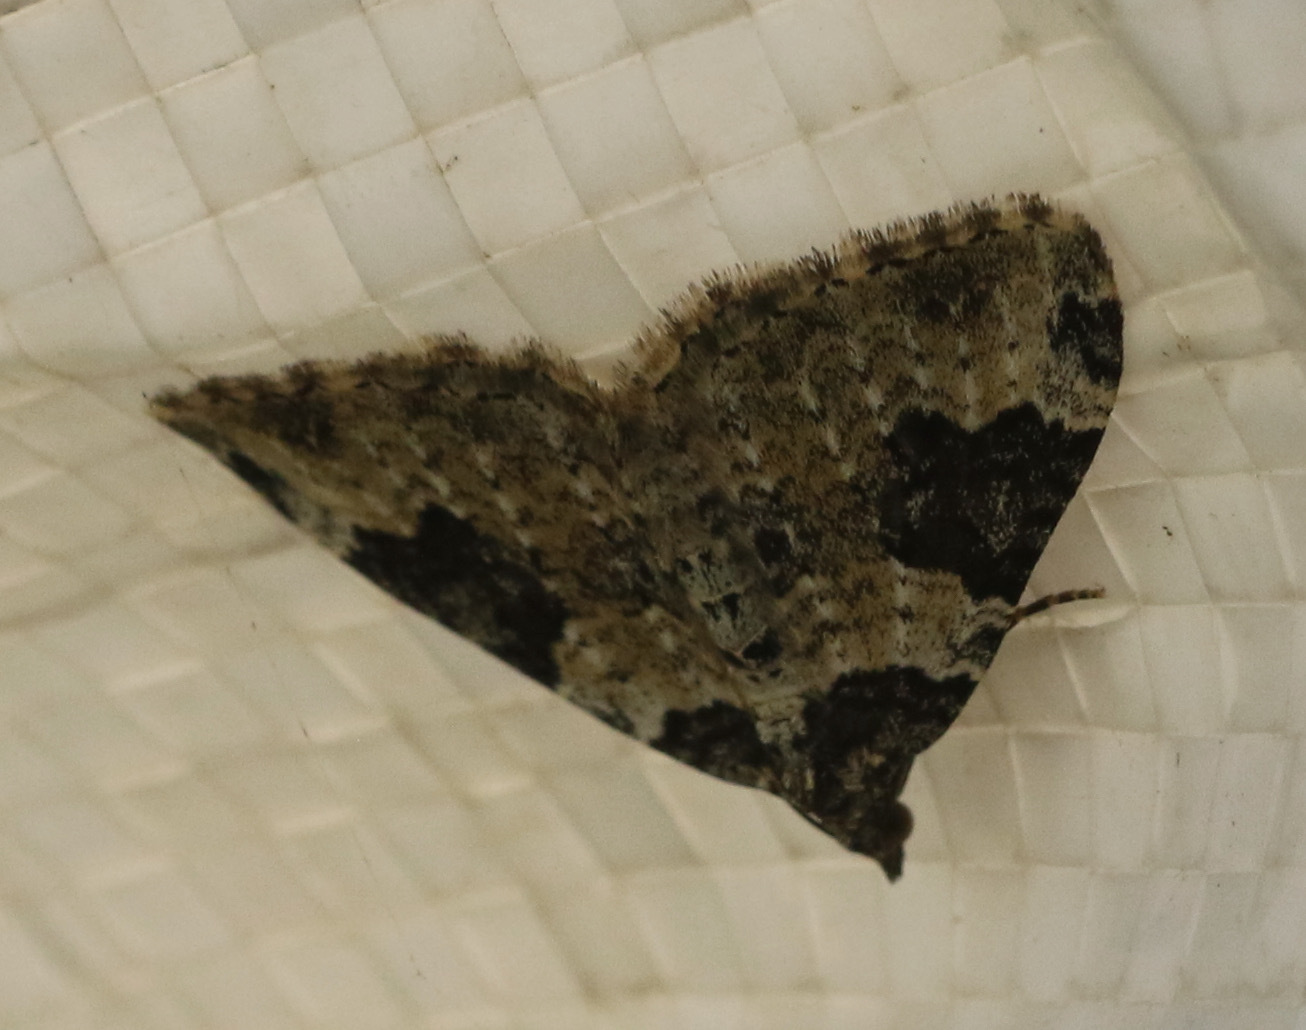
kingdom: Animalia
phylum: Arthropoda
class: Insecta
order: Lepidoptera
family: Geometridae
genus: Xanthorhoe
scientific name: Xanthorhoe fluctuata
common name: Garden carpet
